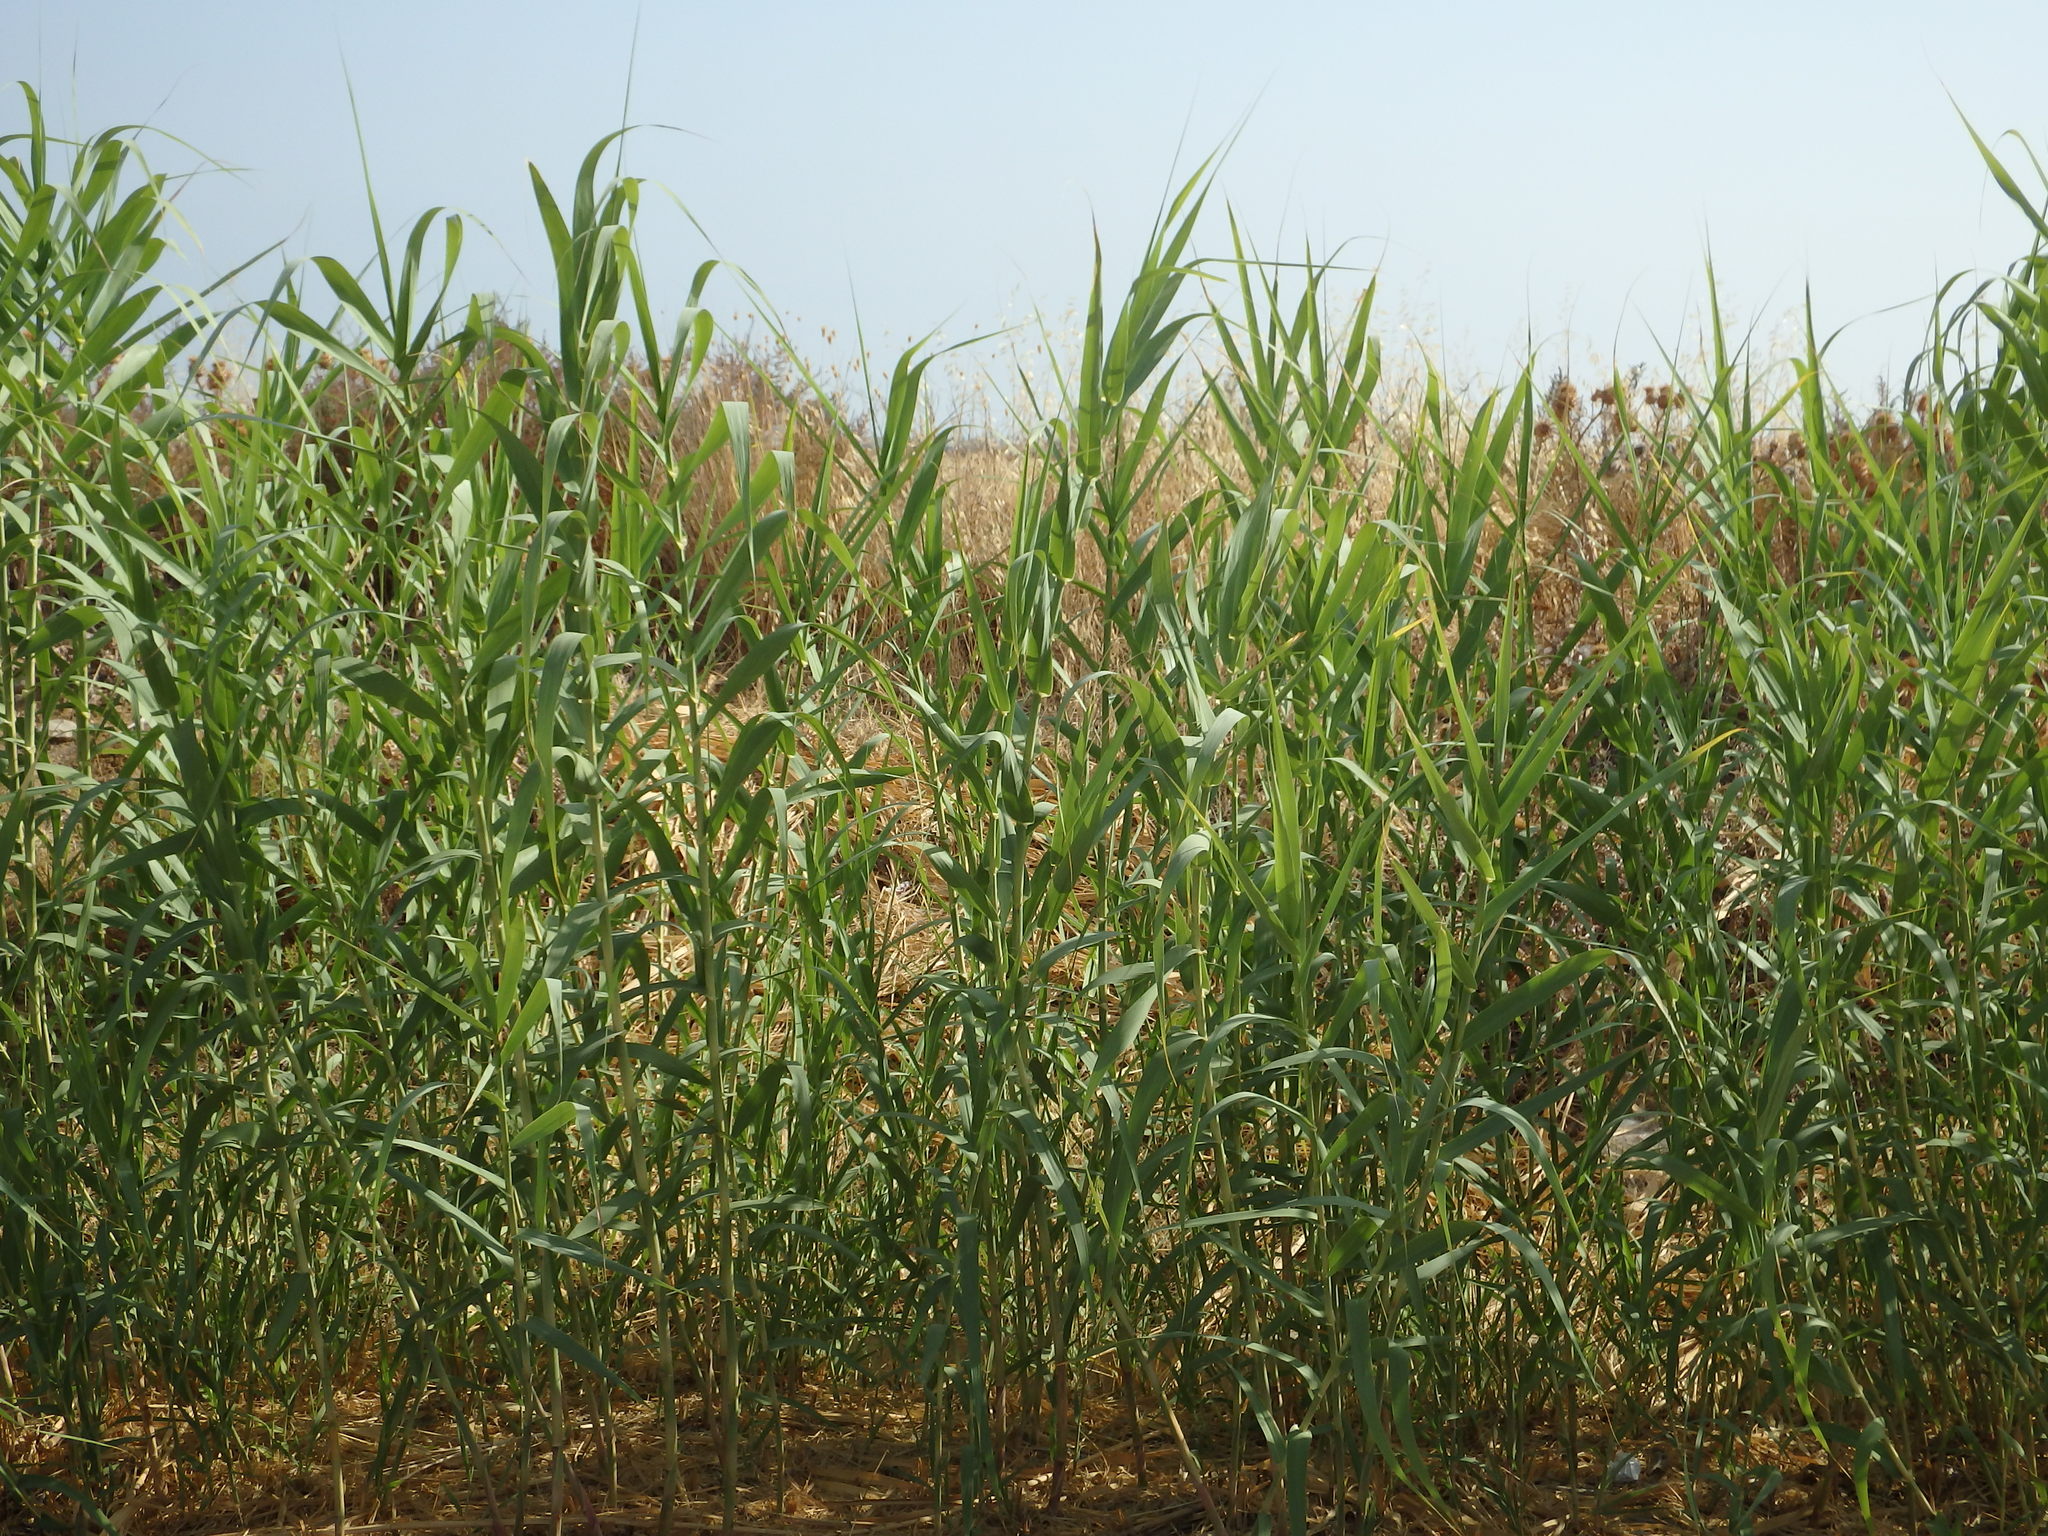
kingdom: Plantae
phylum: Tracheophyta
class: Liliopsida
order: Poales
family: Poaceae
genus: Arundo
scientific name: Arundo donax
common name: Giant reed
